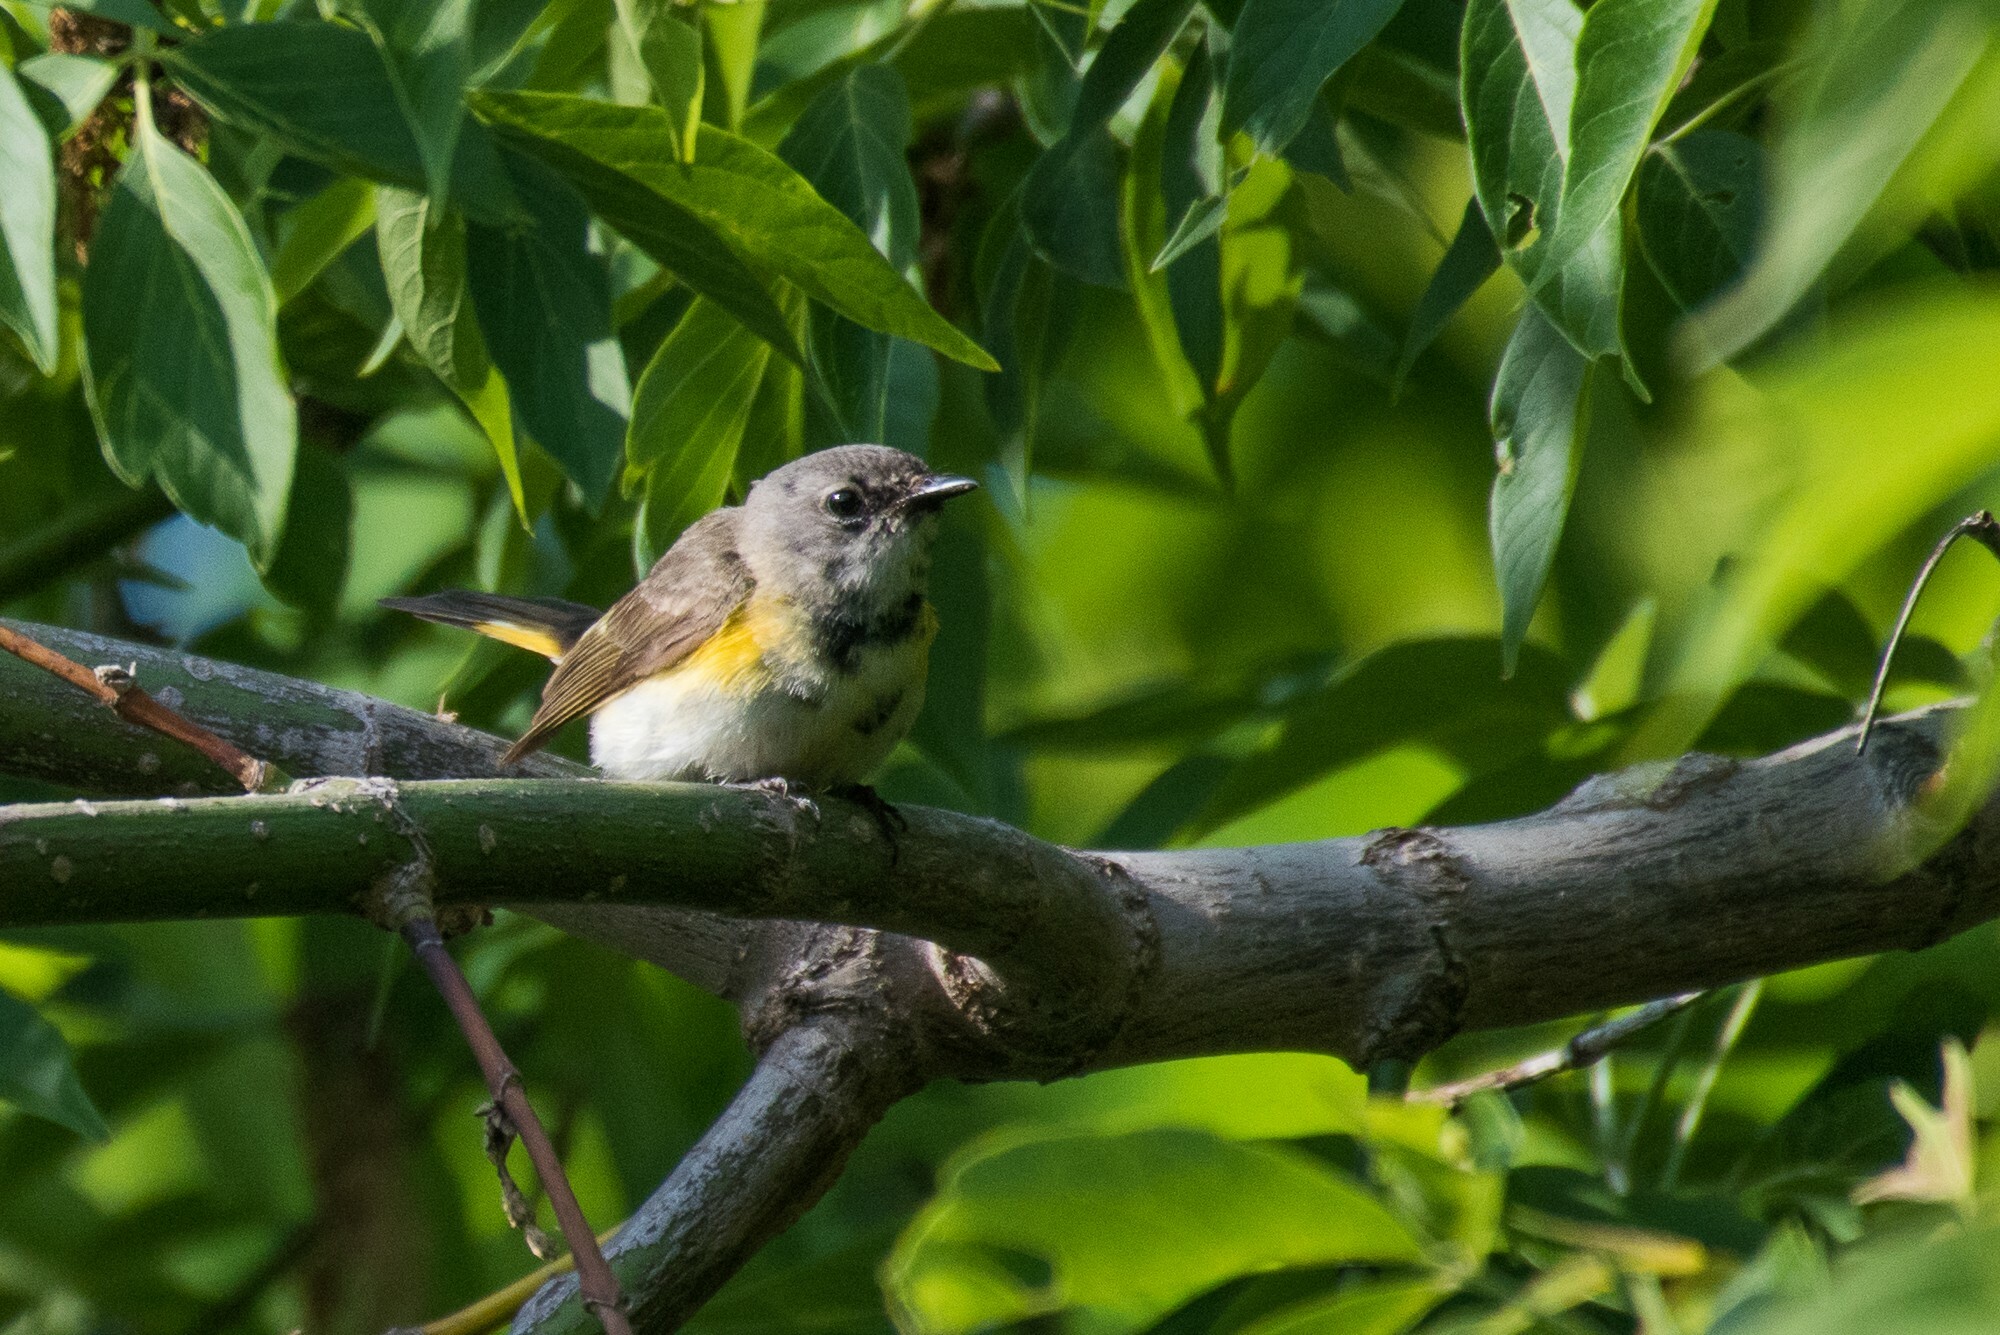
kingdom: Animalia
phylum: Chordata
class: Aves
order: Passeriformes
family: Parulidae
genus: Setophaga
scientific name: Setophaga ruticilla
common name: American redstart
